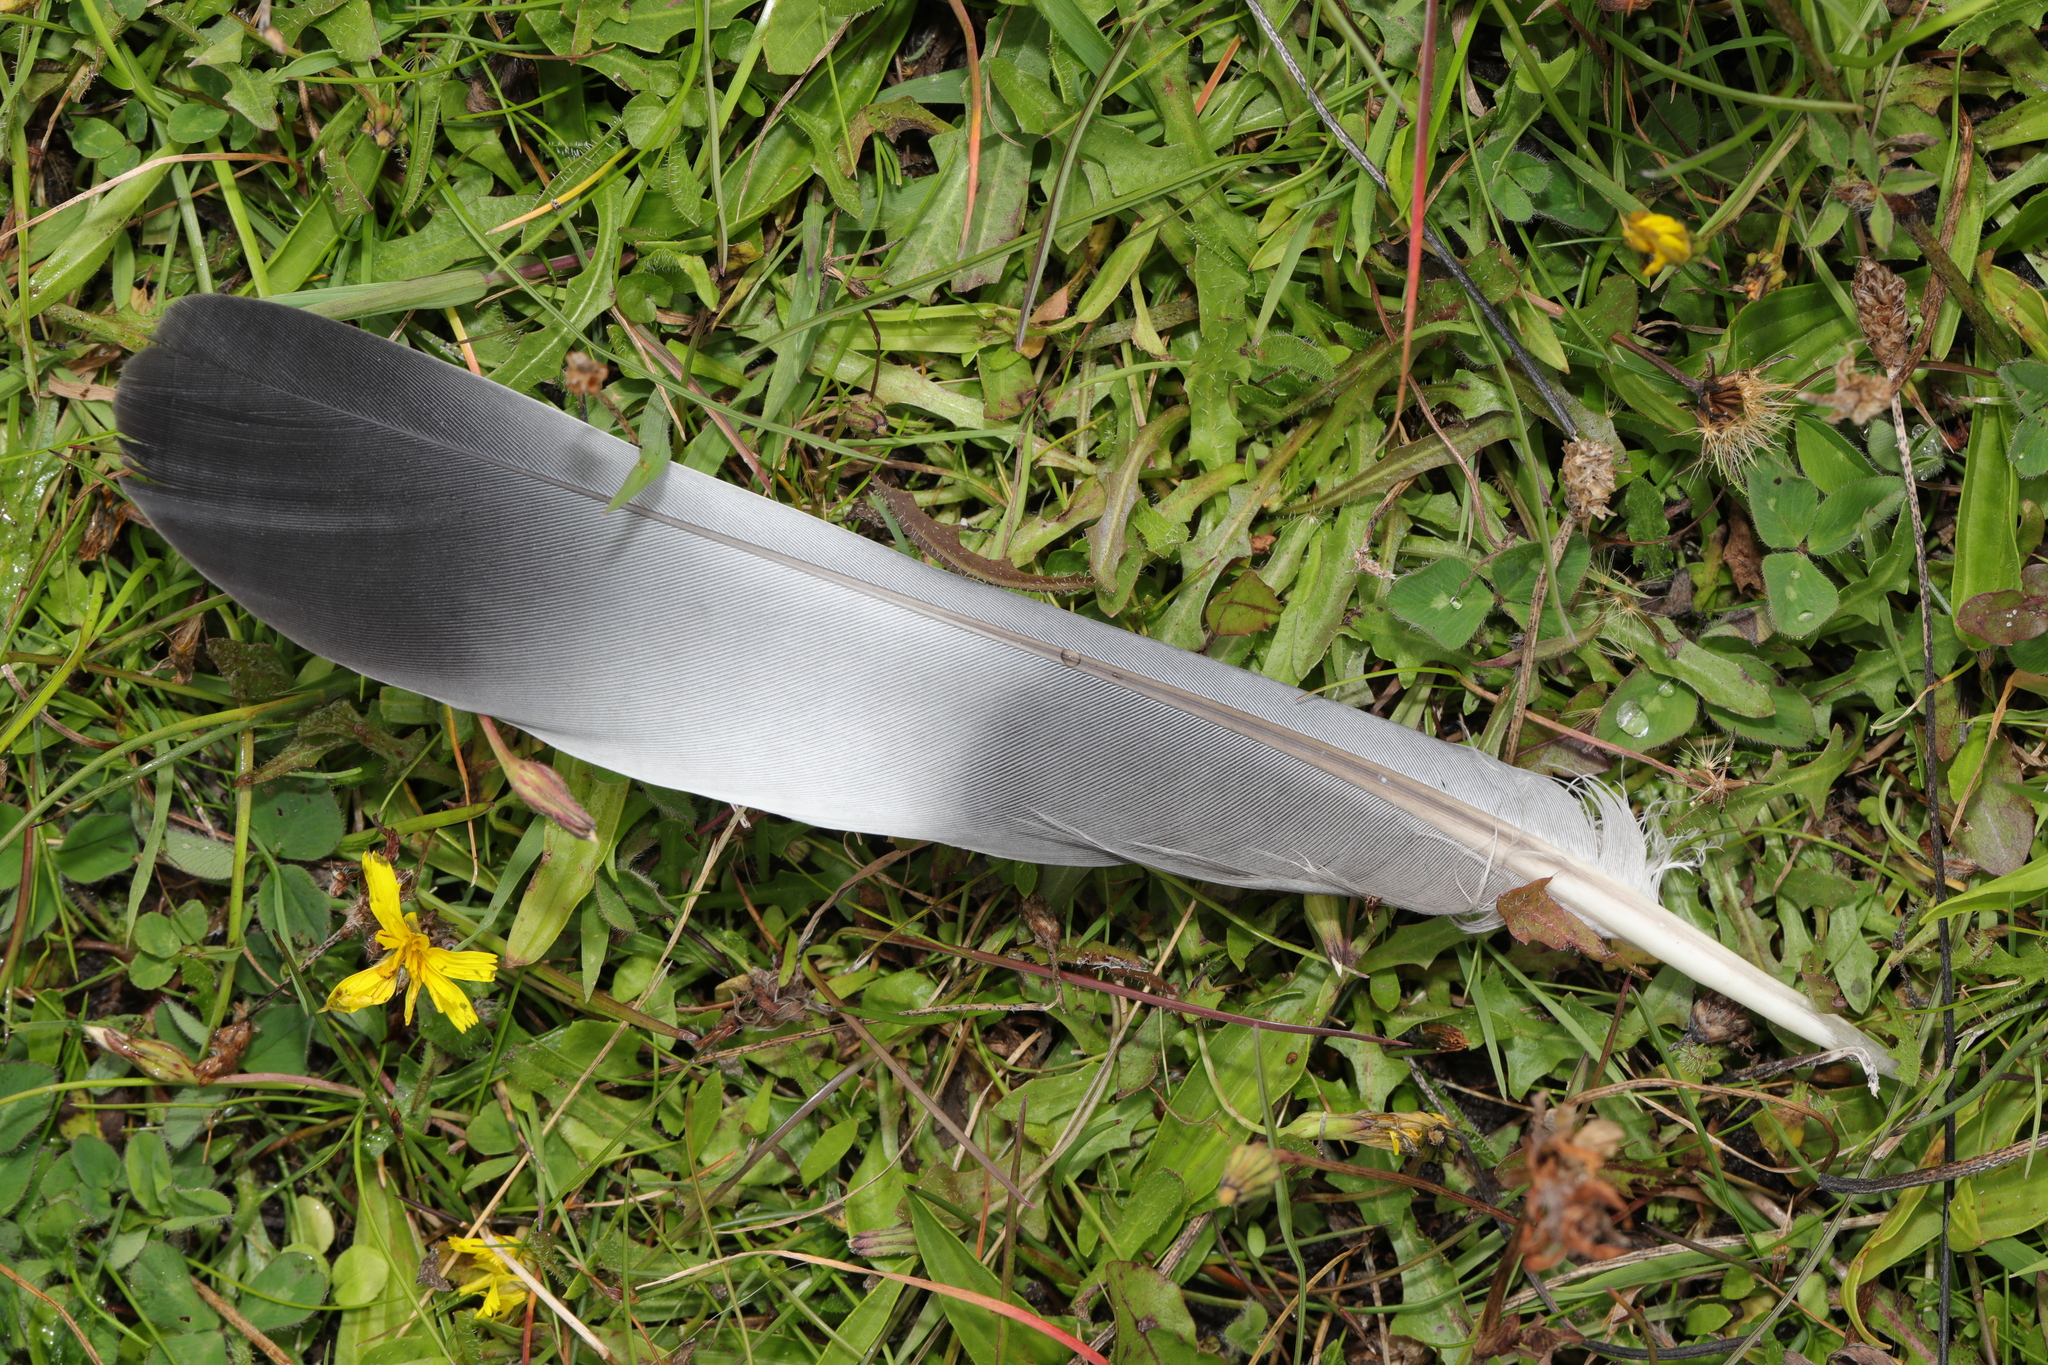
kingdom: Animalia
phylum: Chordata
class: Aves
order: Columbiformes
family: Columbidae
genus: Columba
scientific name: Columba palumbus
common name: Common wood pigeon
